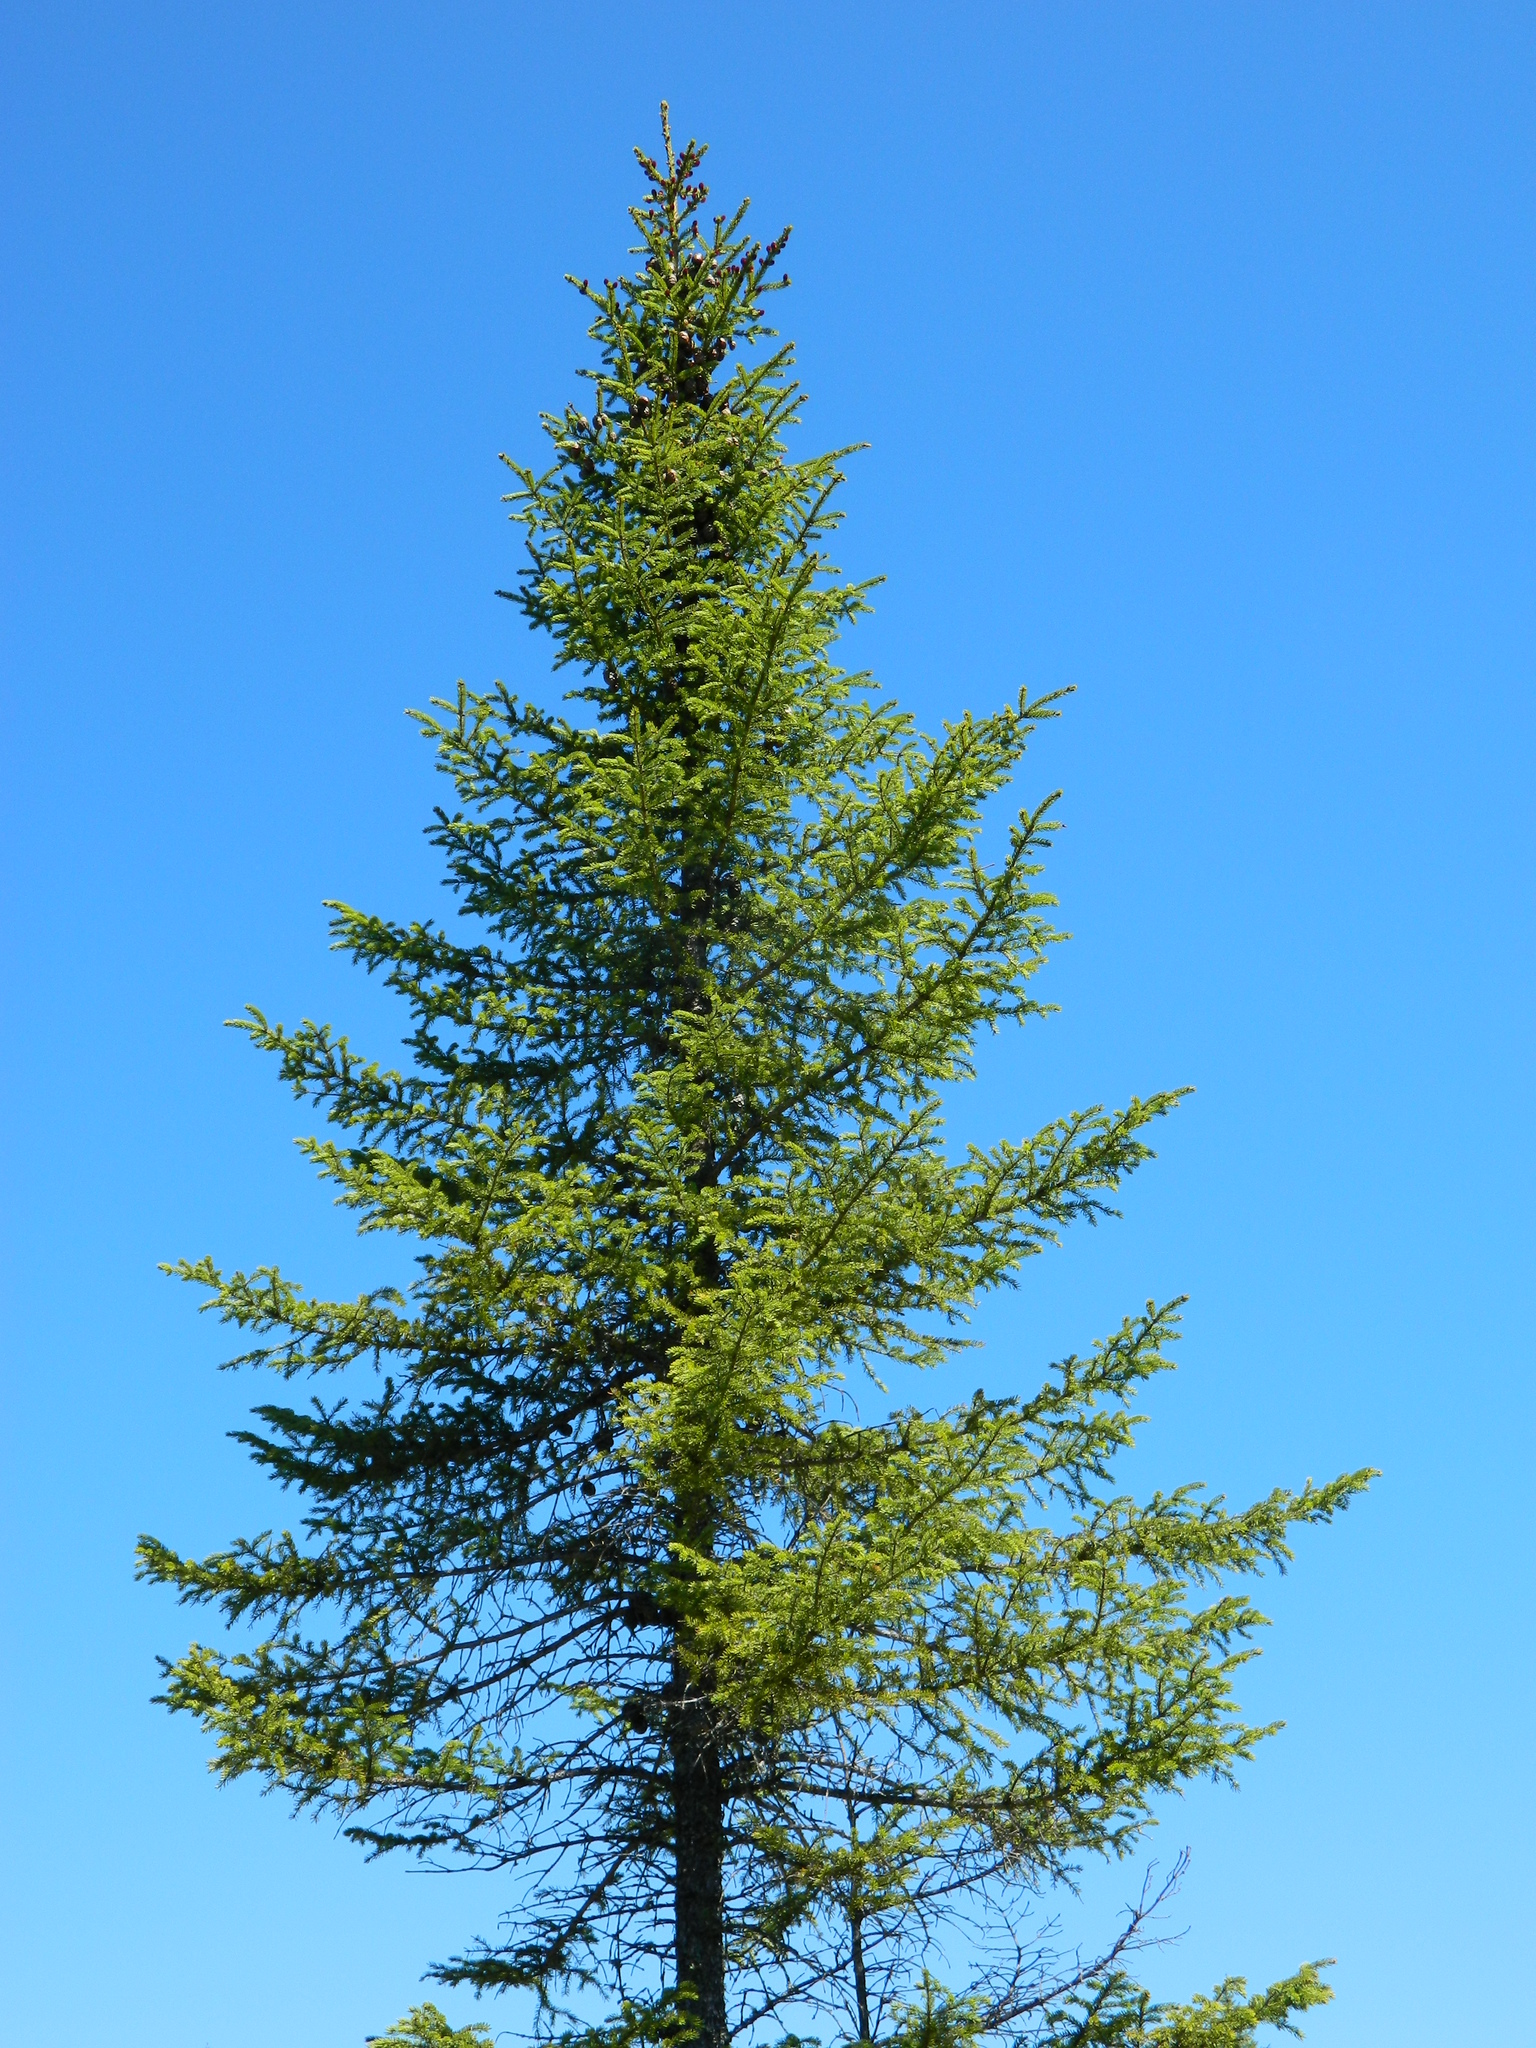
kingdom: Plantae
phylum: Tracheophyta
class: Pinopsida
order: Pinales
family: Pinaceae
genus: Picea
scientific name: Picea mariana
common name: Black spruce
